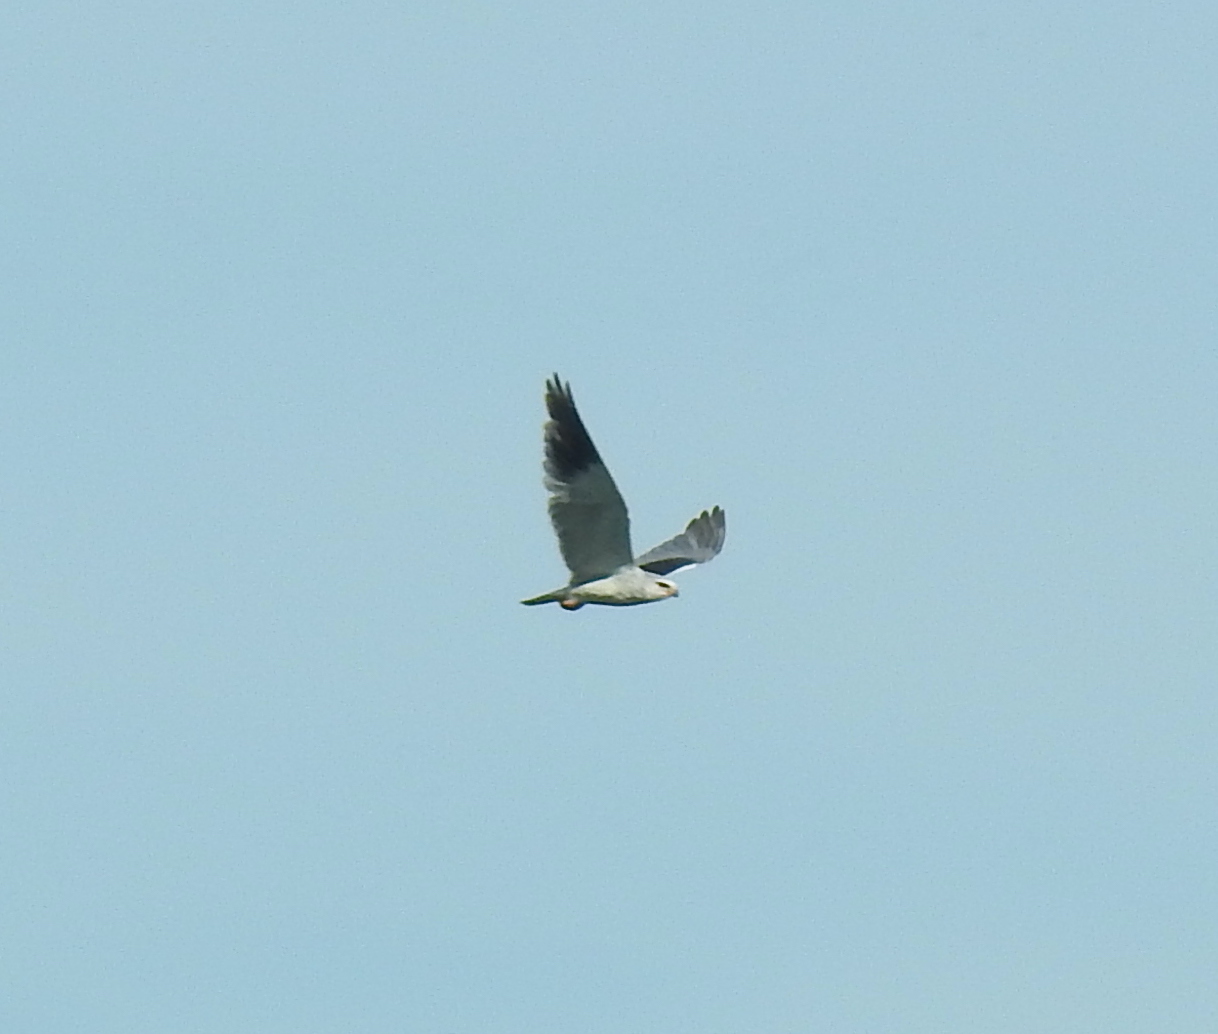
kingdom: Animalia
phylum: Chordata
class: Aves
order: Accipitriformes
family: Accipitridae
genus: Elanus
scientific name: Elanus caeruleus
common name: Black-winged kite
